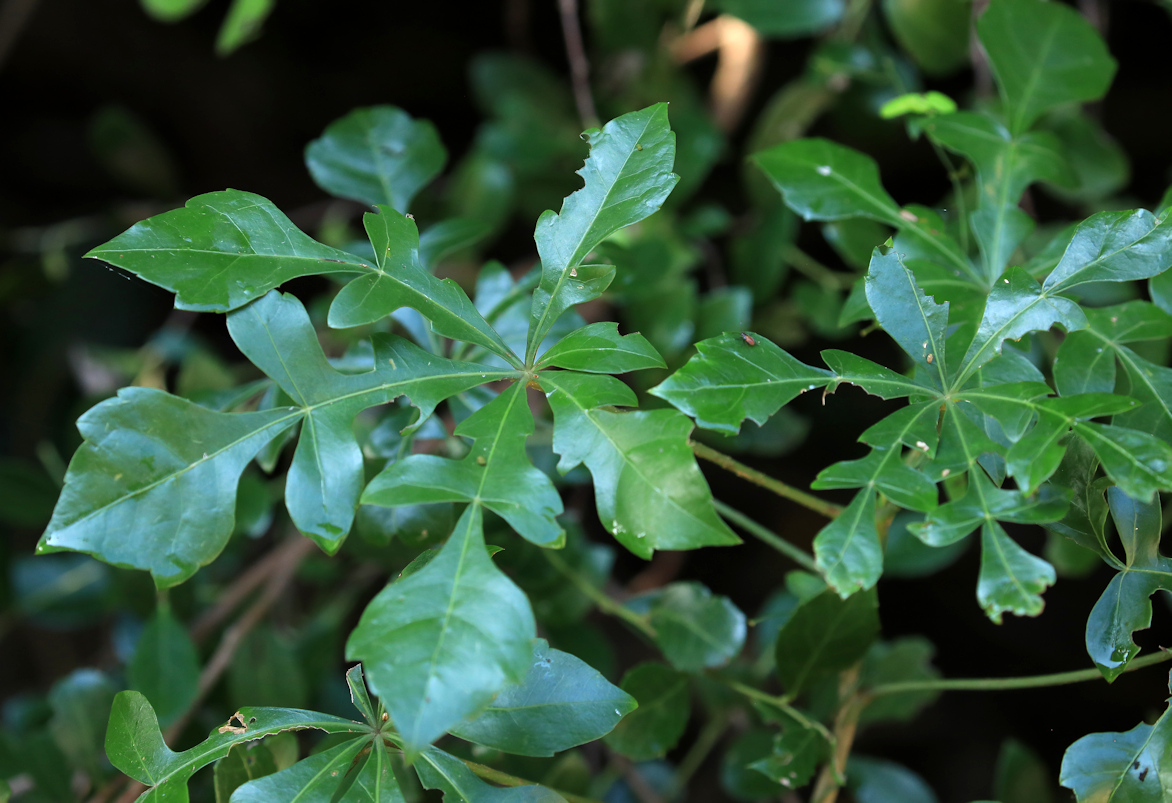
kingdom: Plantae
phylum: Tracheophyta
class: Magnoliopsida
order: Apiales
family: Araliaceae
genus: Cussonia
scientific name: Cussonia arenicola
